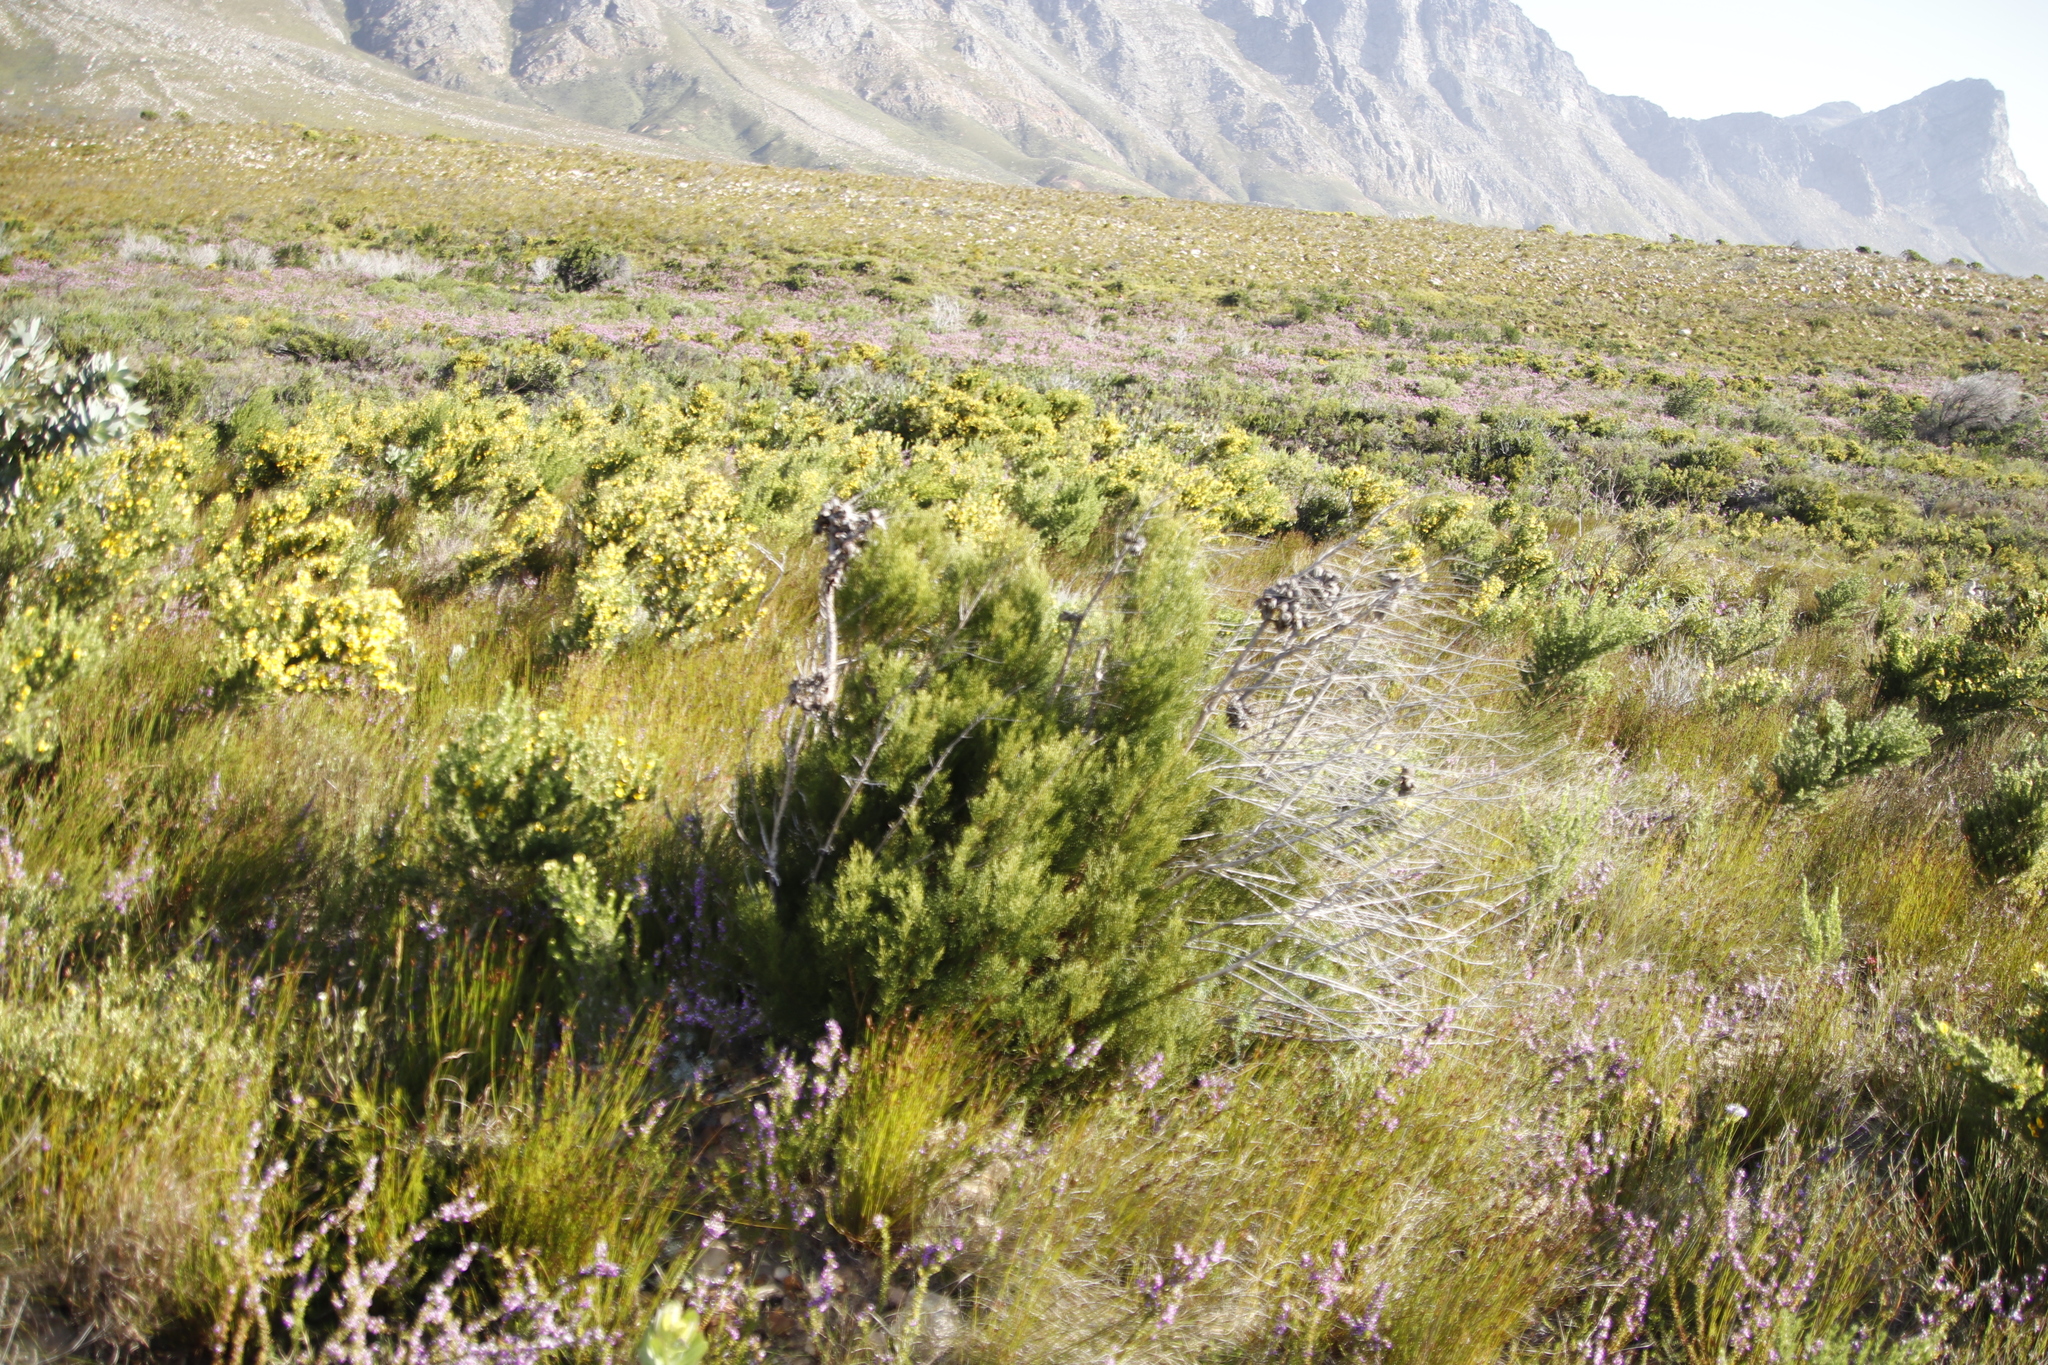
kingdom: Plantae
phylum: Tracheophyta
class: Pinopsida
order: Pinales
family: Cupressaceae
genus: Widdringtonia
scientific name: Widdringtonia nodiflora
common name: Cape cypress
